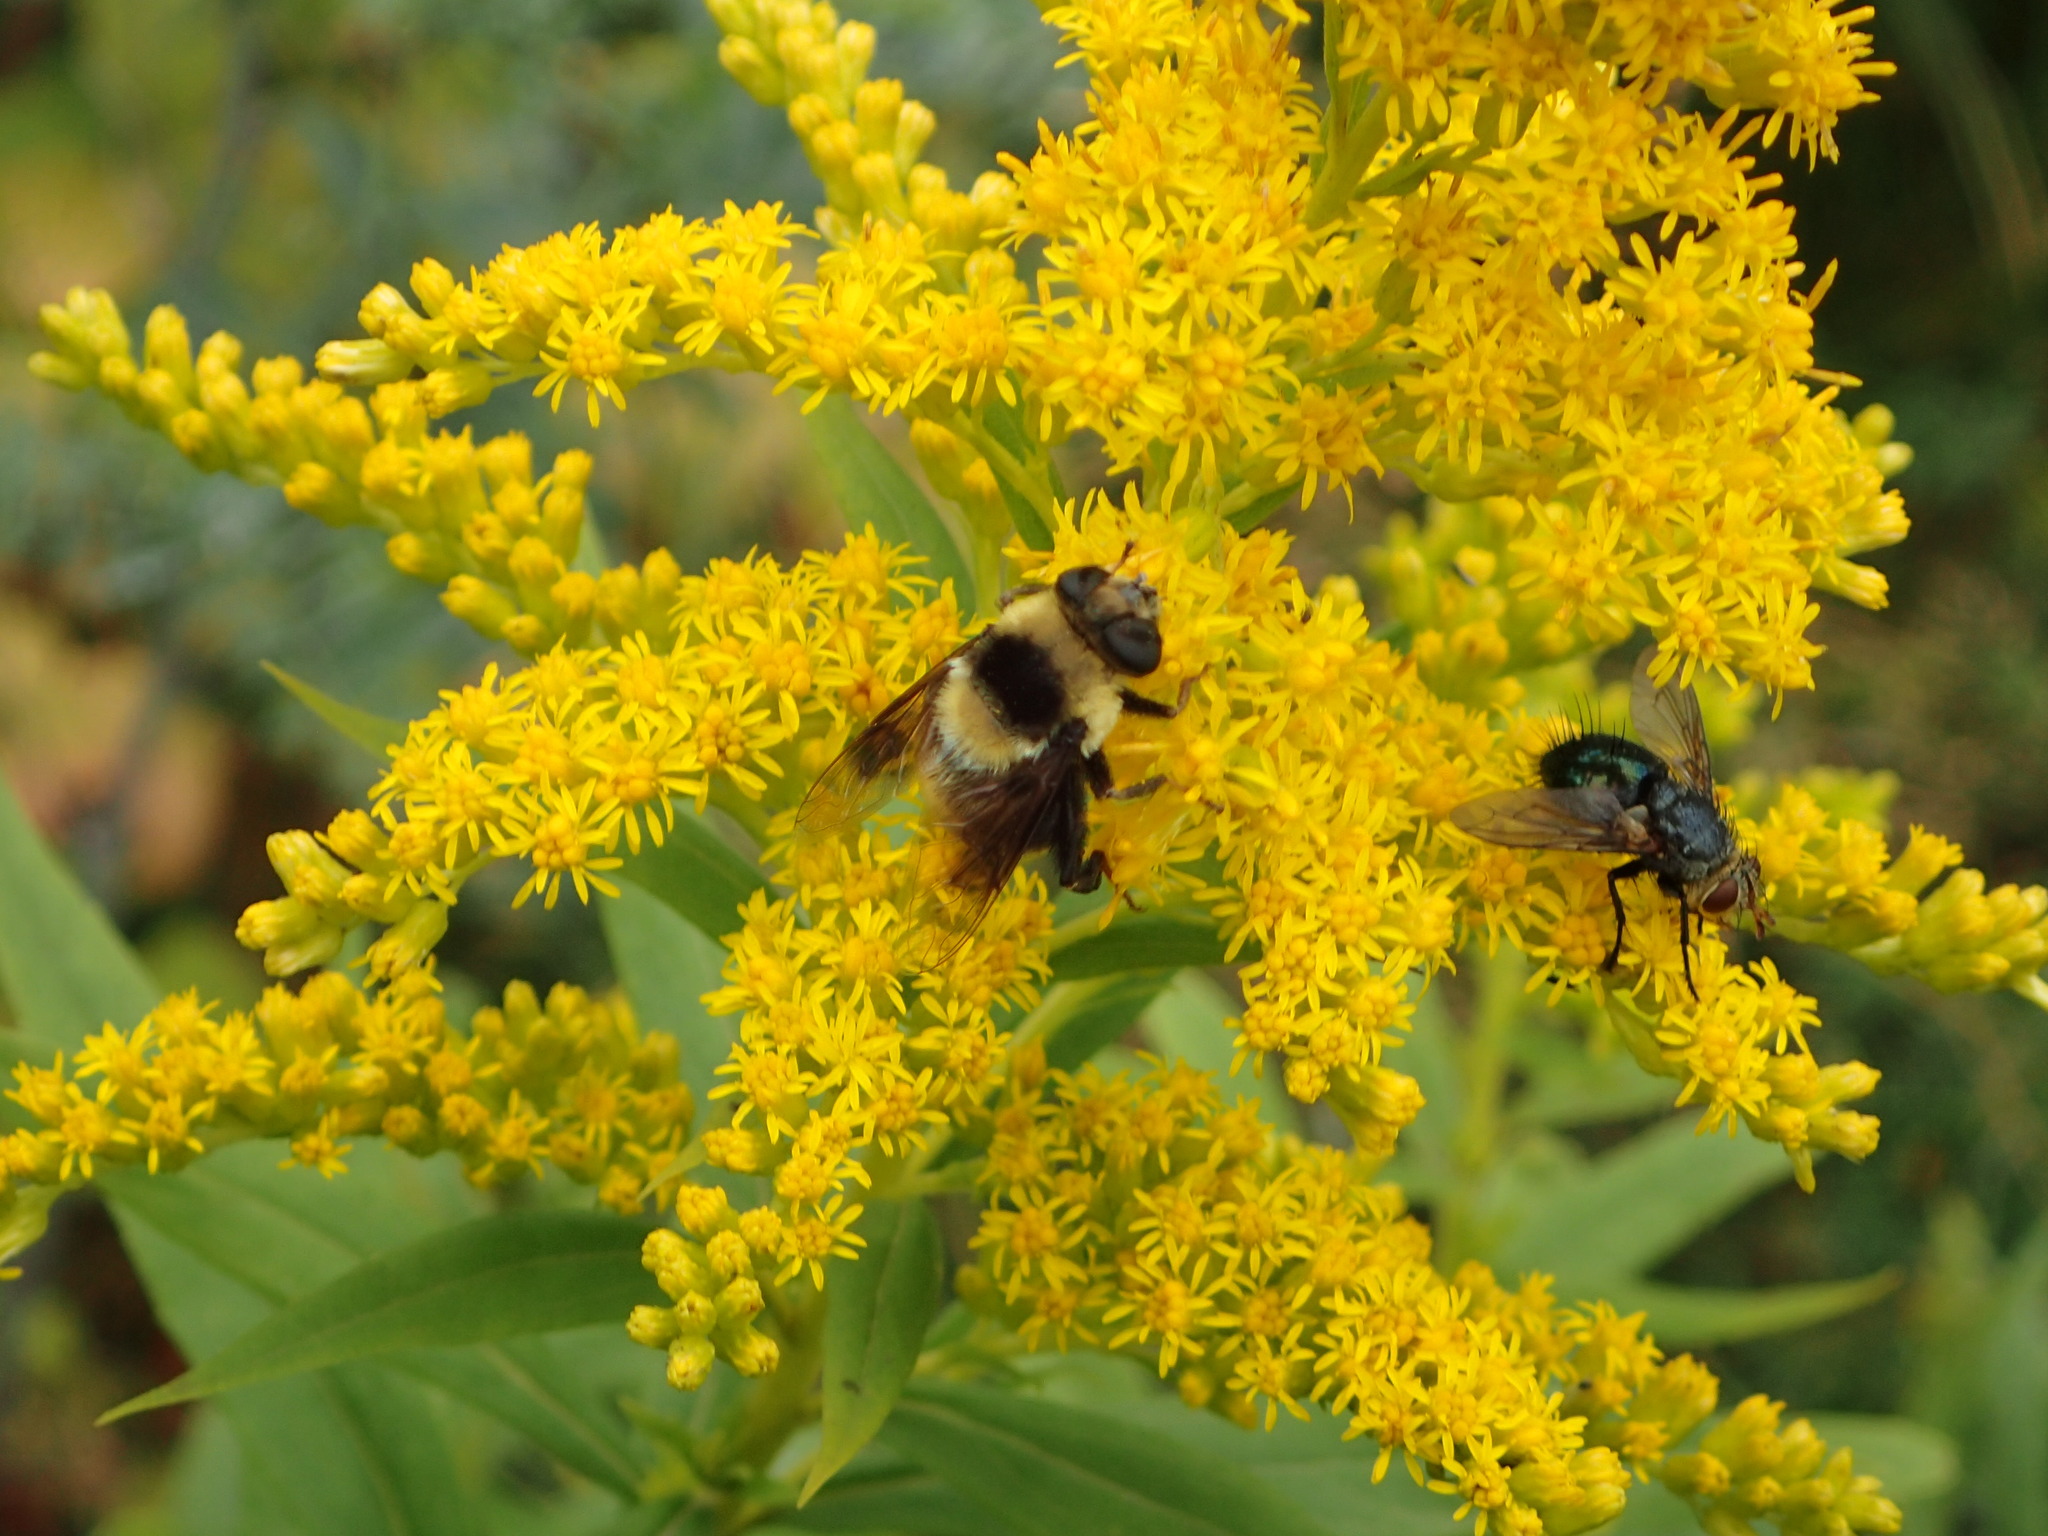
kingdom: Animalia
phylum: Arthropoda
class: Insecta
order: Diptera
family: Syrphidae
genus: Eristalis
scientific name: Eristalis flavipes
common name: Orange-legged drone fly
